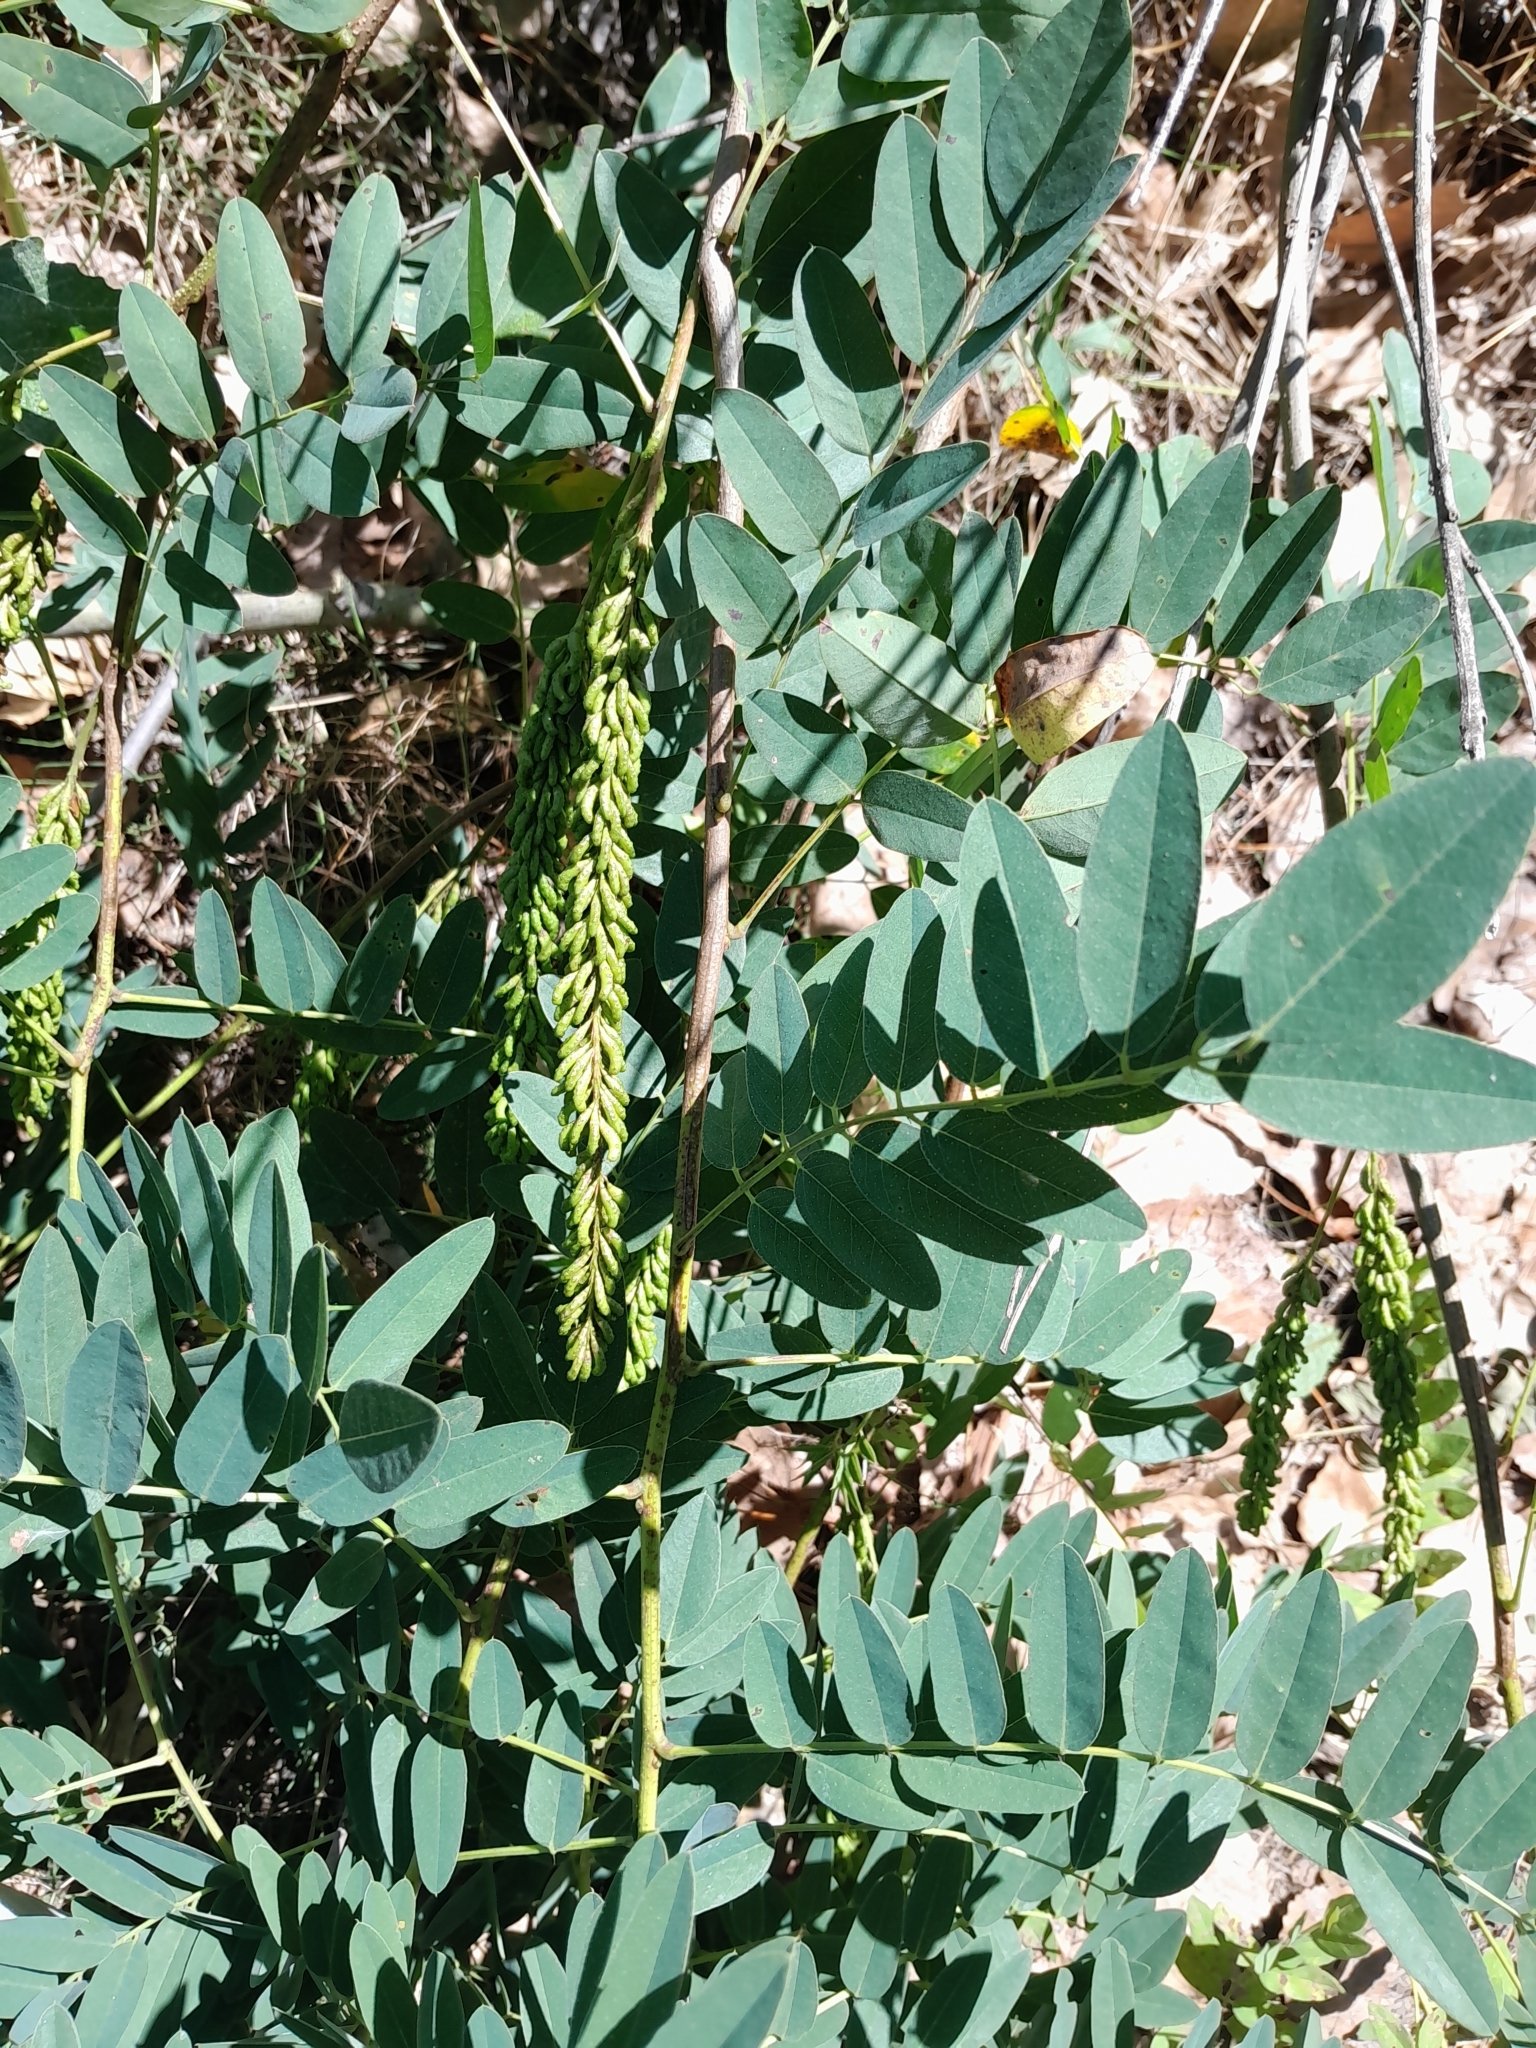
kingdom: Plantae
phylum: Tracheophyta
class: Magnoliopsida
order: Fabales
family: Fabaceae
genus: Amorpha
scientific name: Amorpha fruticosa
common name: False indigo
